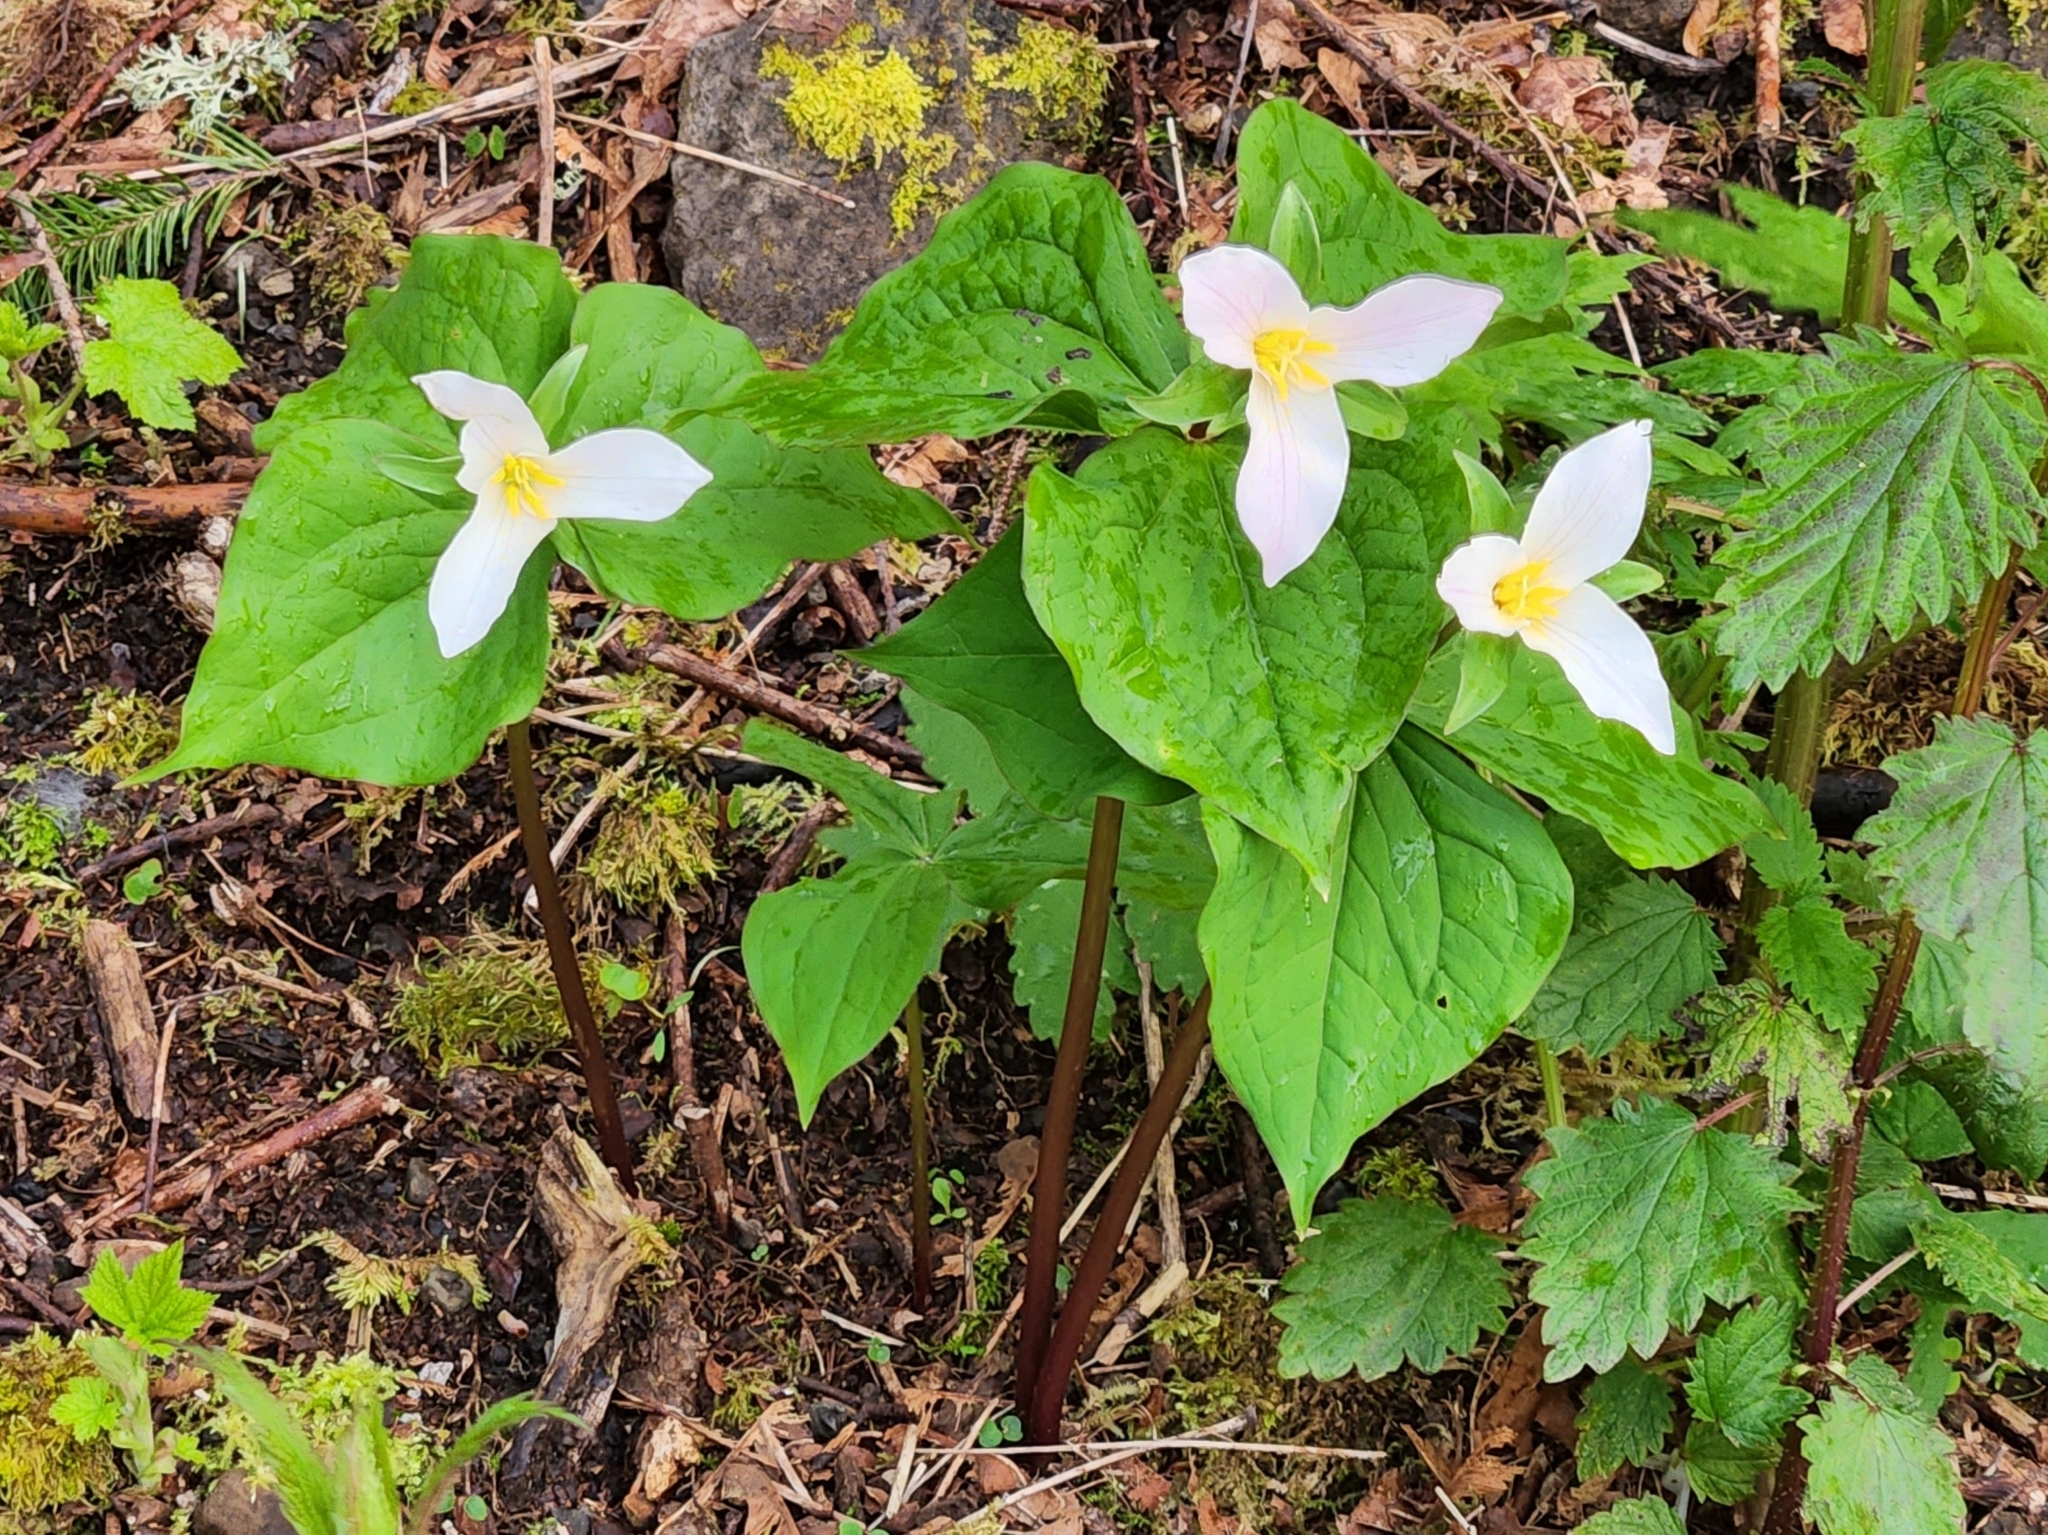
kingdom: Plantae
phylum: Tracheophyta
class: Liliopsida
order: Liliales
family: Melanthiaceae
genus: Trillium
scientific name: Trillium ovatum
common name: Pacific trillium
